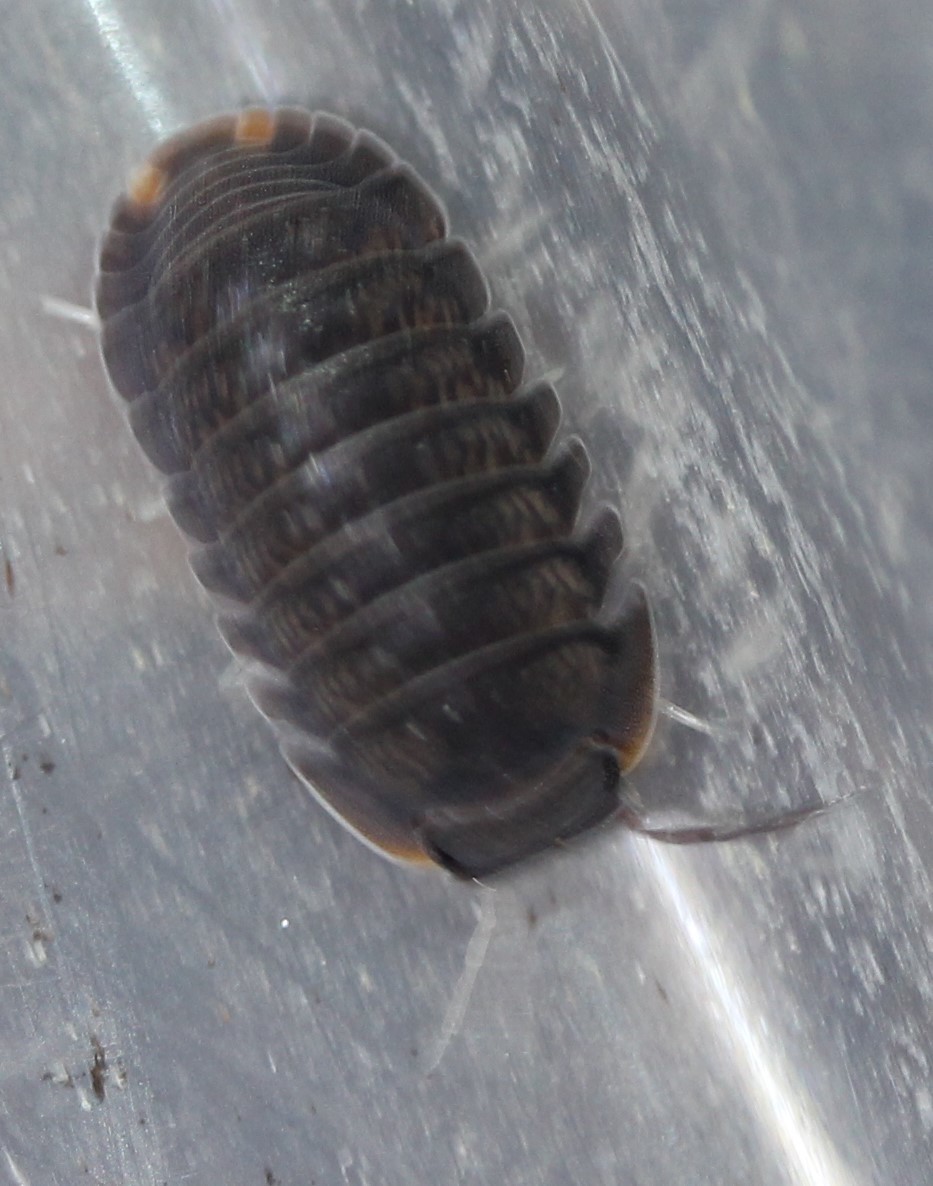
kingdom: Animalia
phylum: Arthropoda
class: Malacostraca
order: Isopoda
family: Armadillidae
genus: Cubaris
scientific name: Cubaris murina
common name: Pillbug
